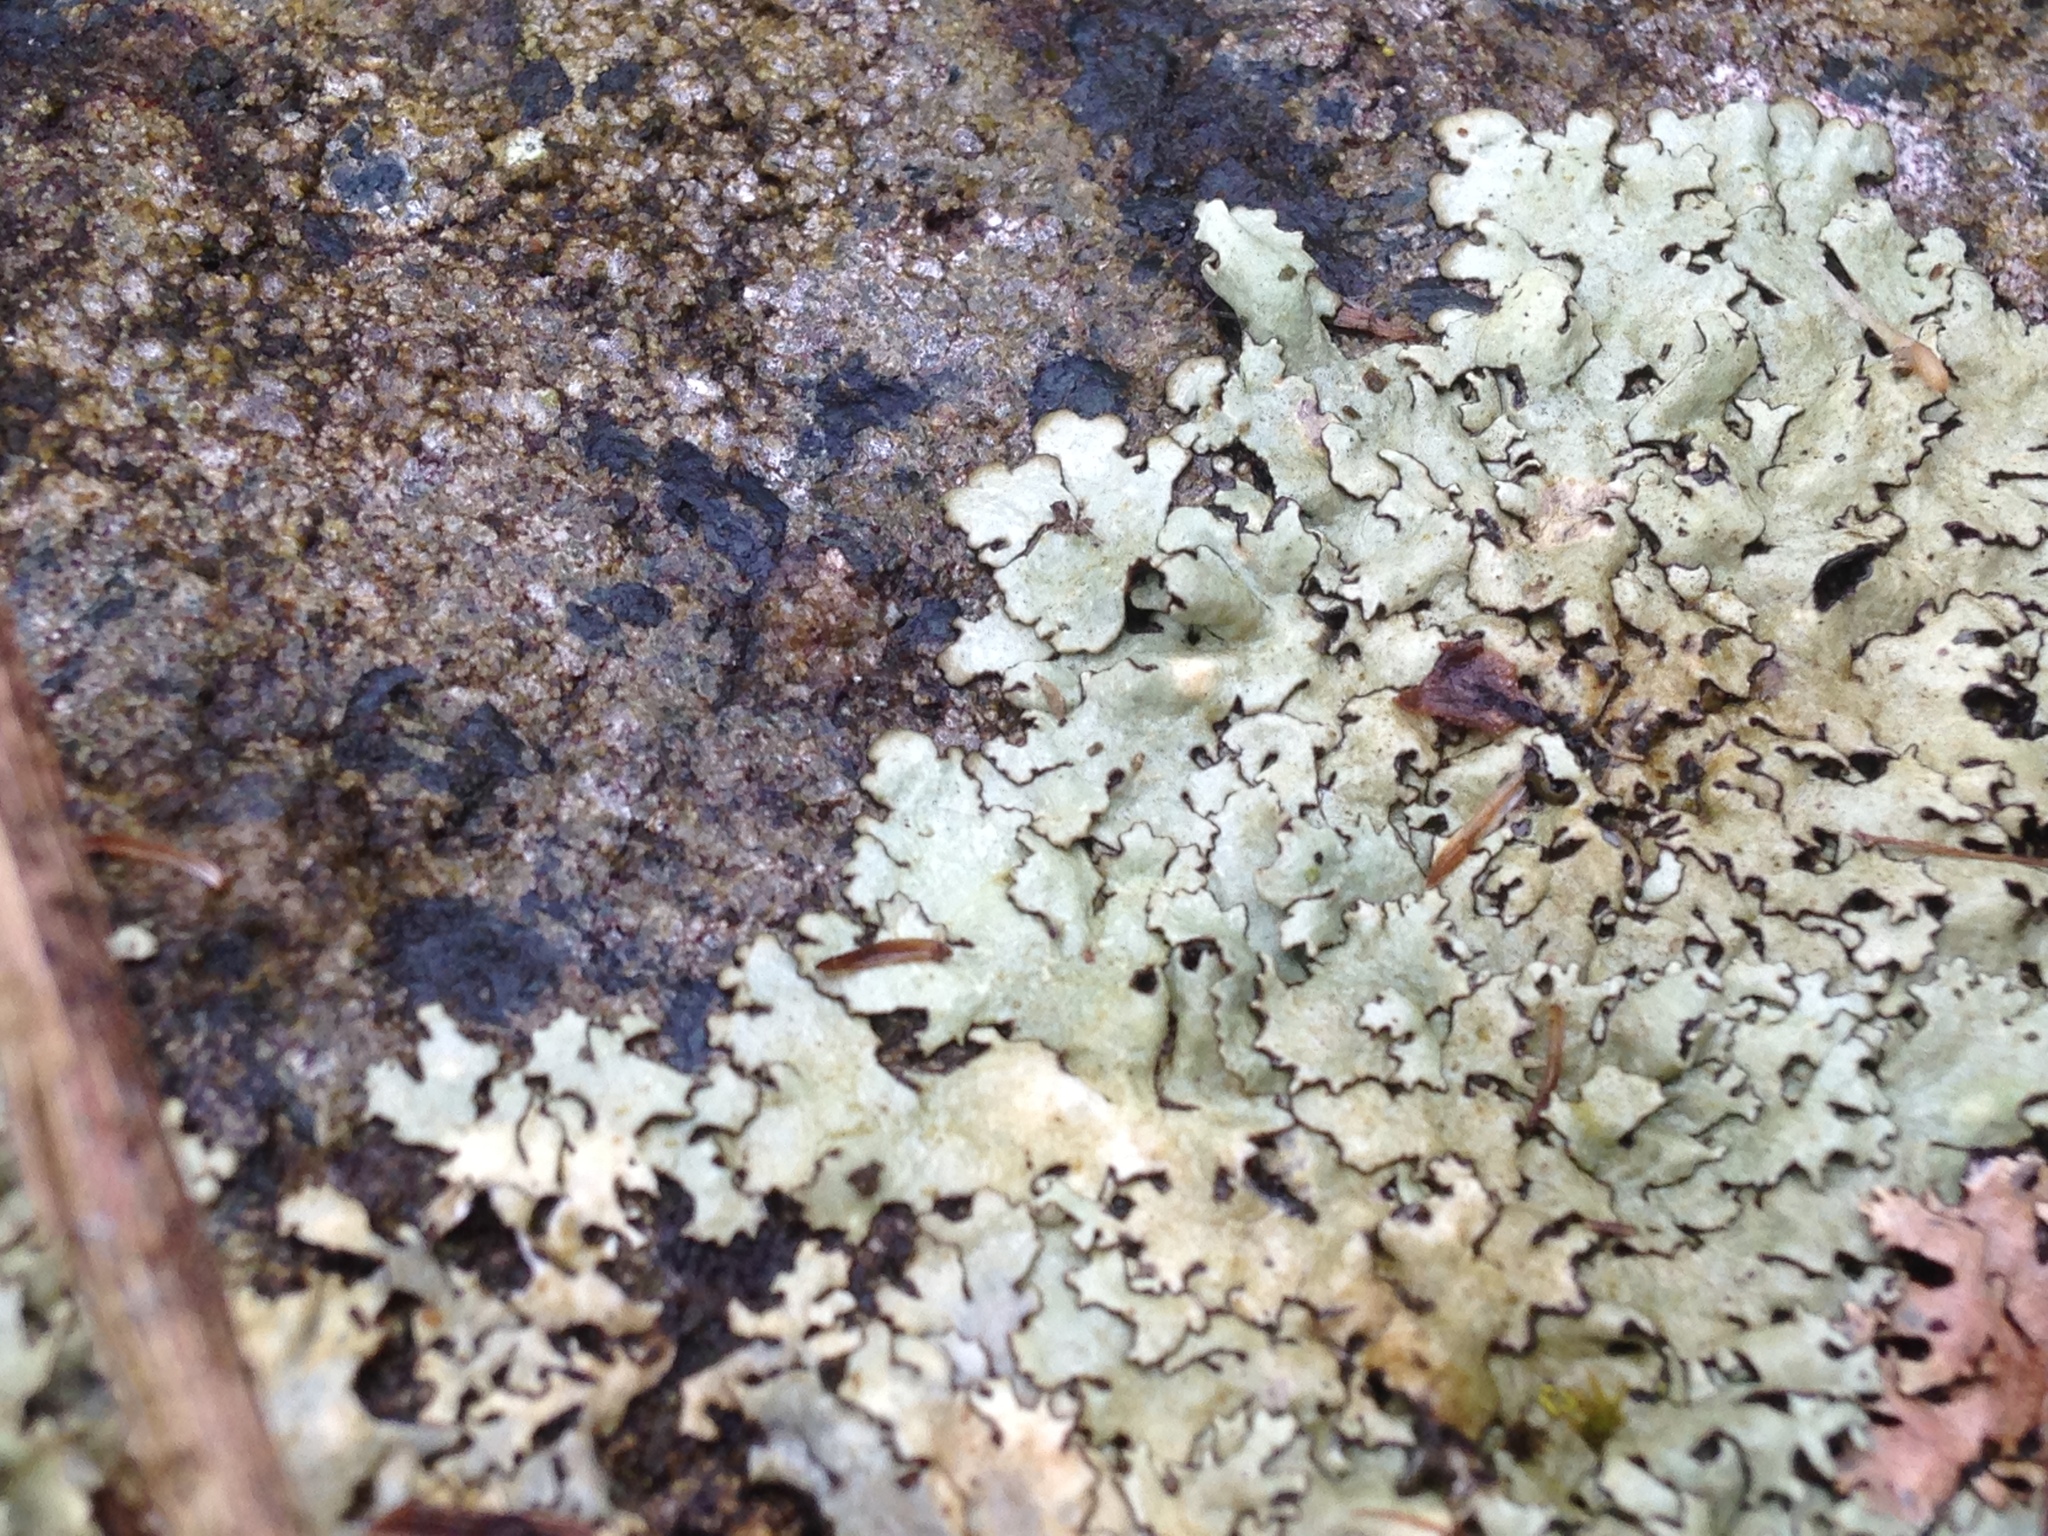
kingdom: Fungi
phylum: Ascomycota
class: Lecanoromycetes
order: Lecanorales
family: Parmeliaceae
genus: Xanthoparmelia
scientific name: Xanthoparmelia cumberlandia
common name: Cumberland rock shield
